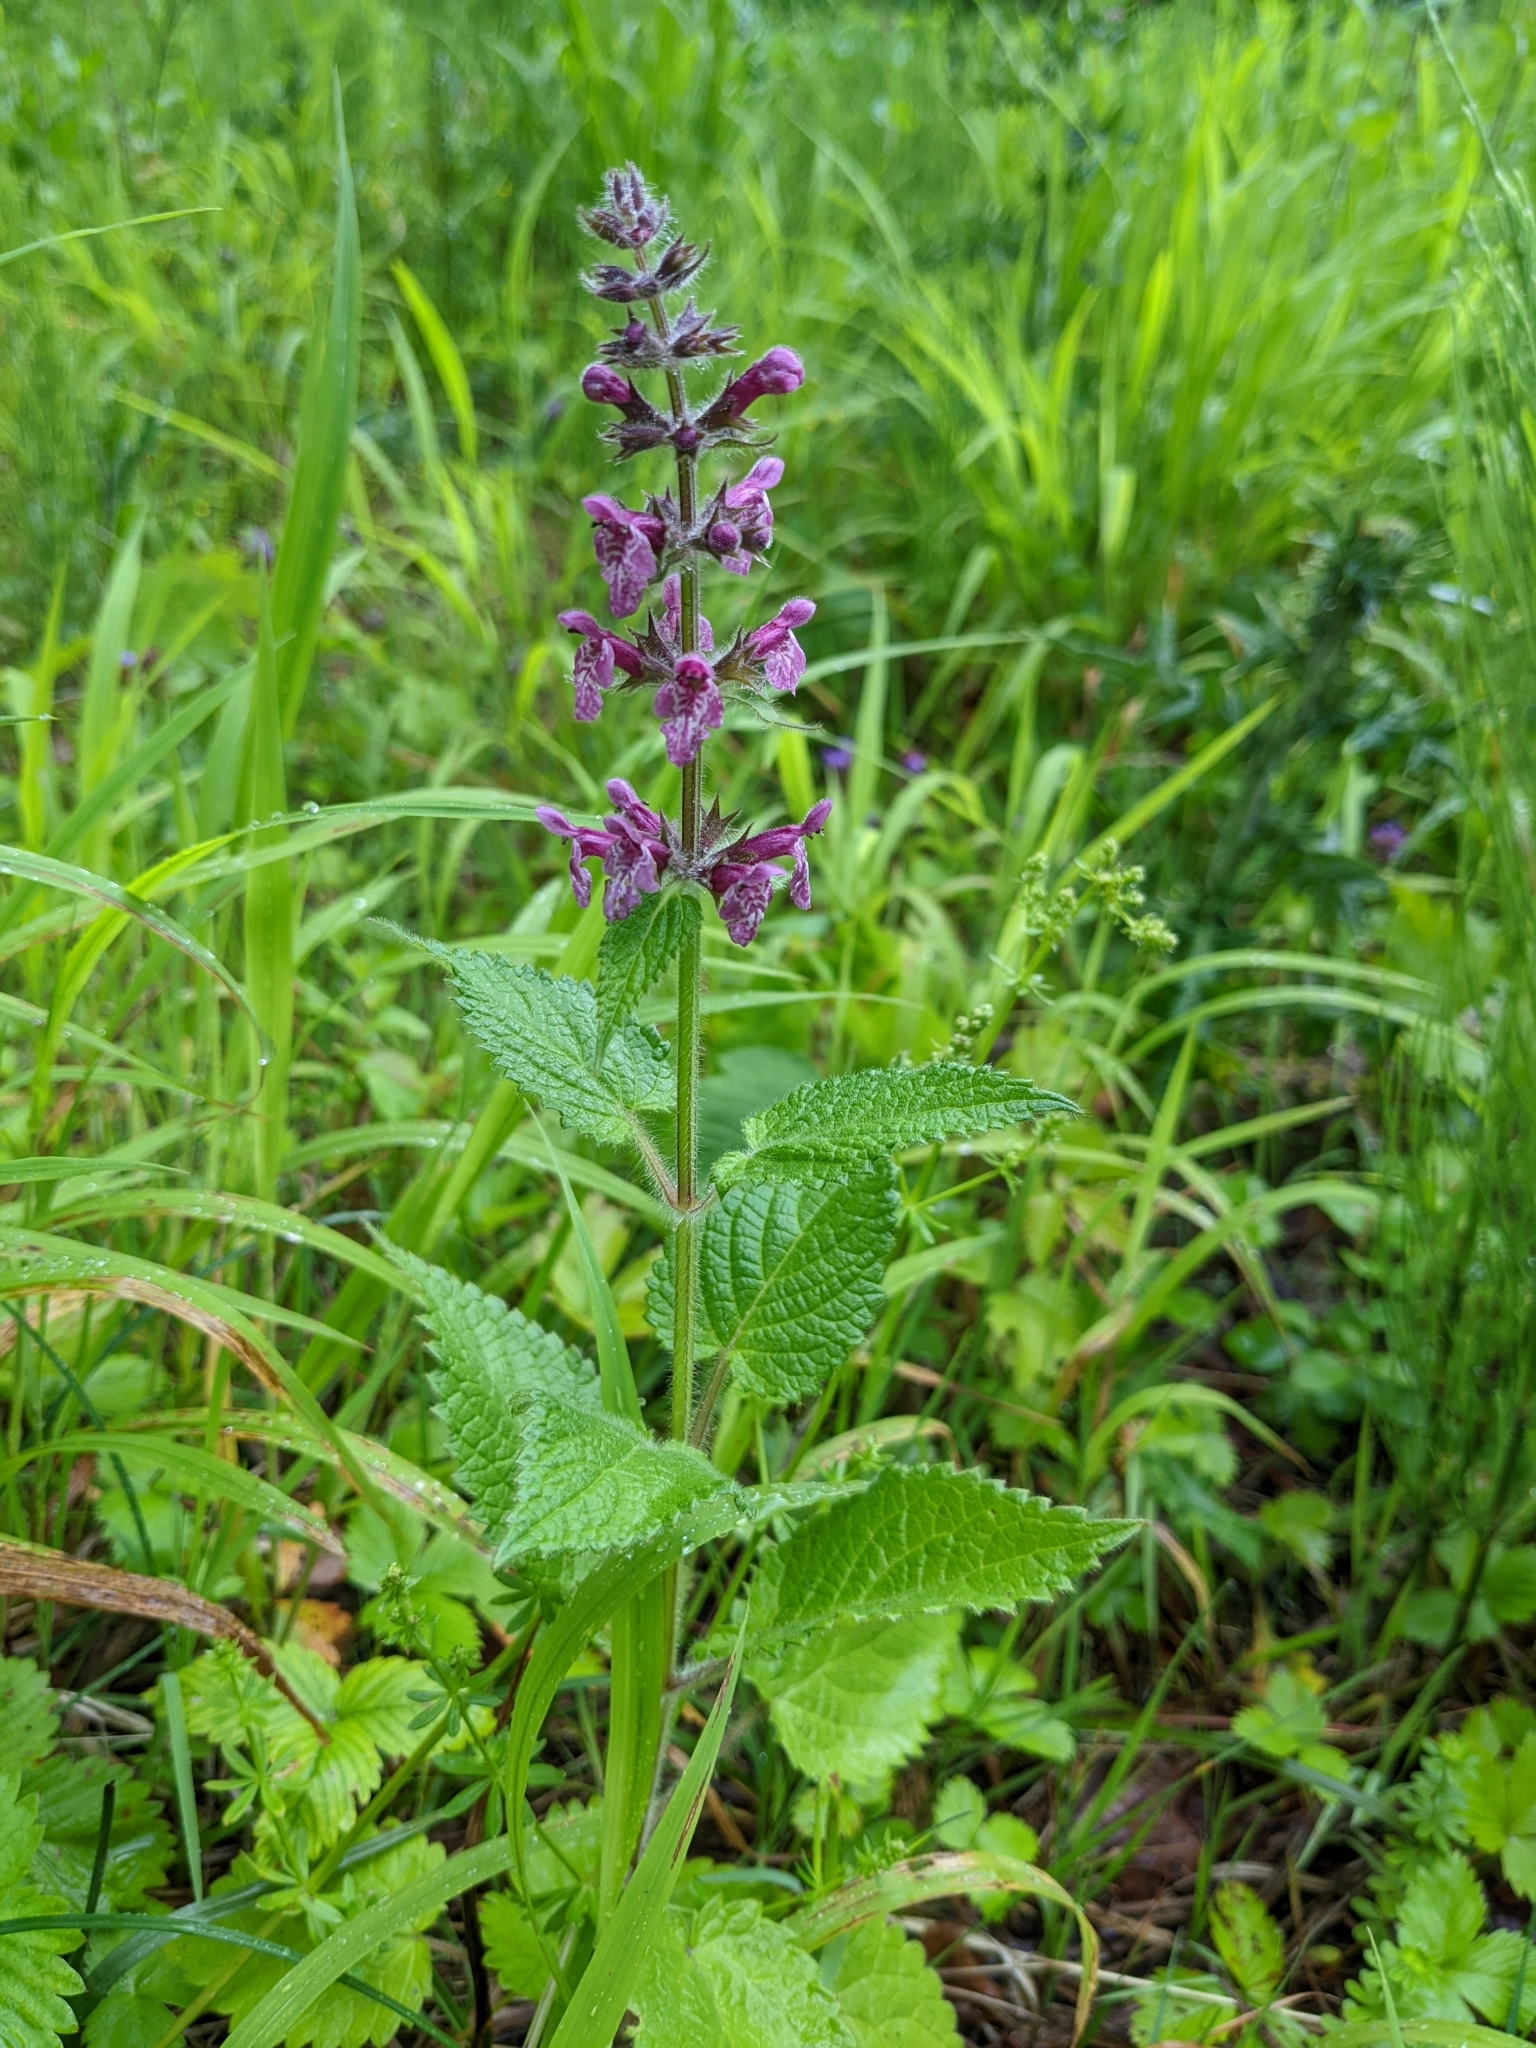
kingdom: Plantae
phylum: Tracheophyta
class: Magnoliopsida
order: Lamiales
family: Lamiaceae
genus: Stachys
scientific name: Stachys sylvatica
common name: Hedge woundwort
